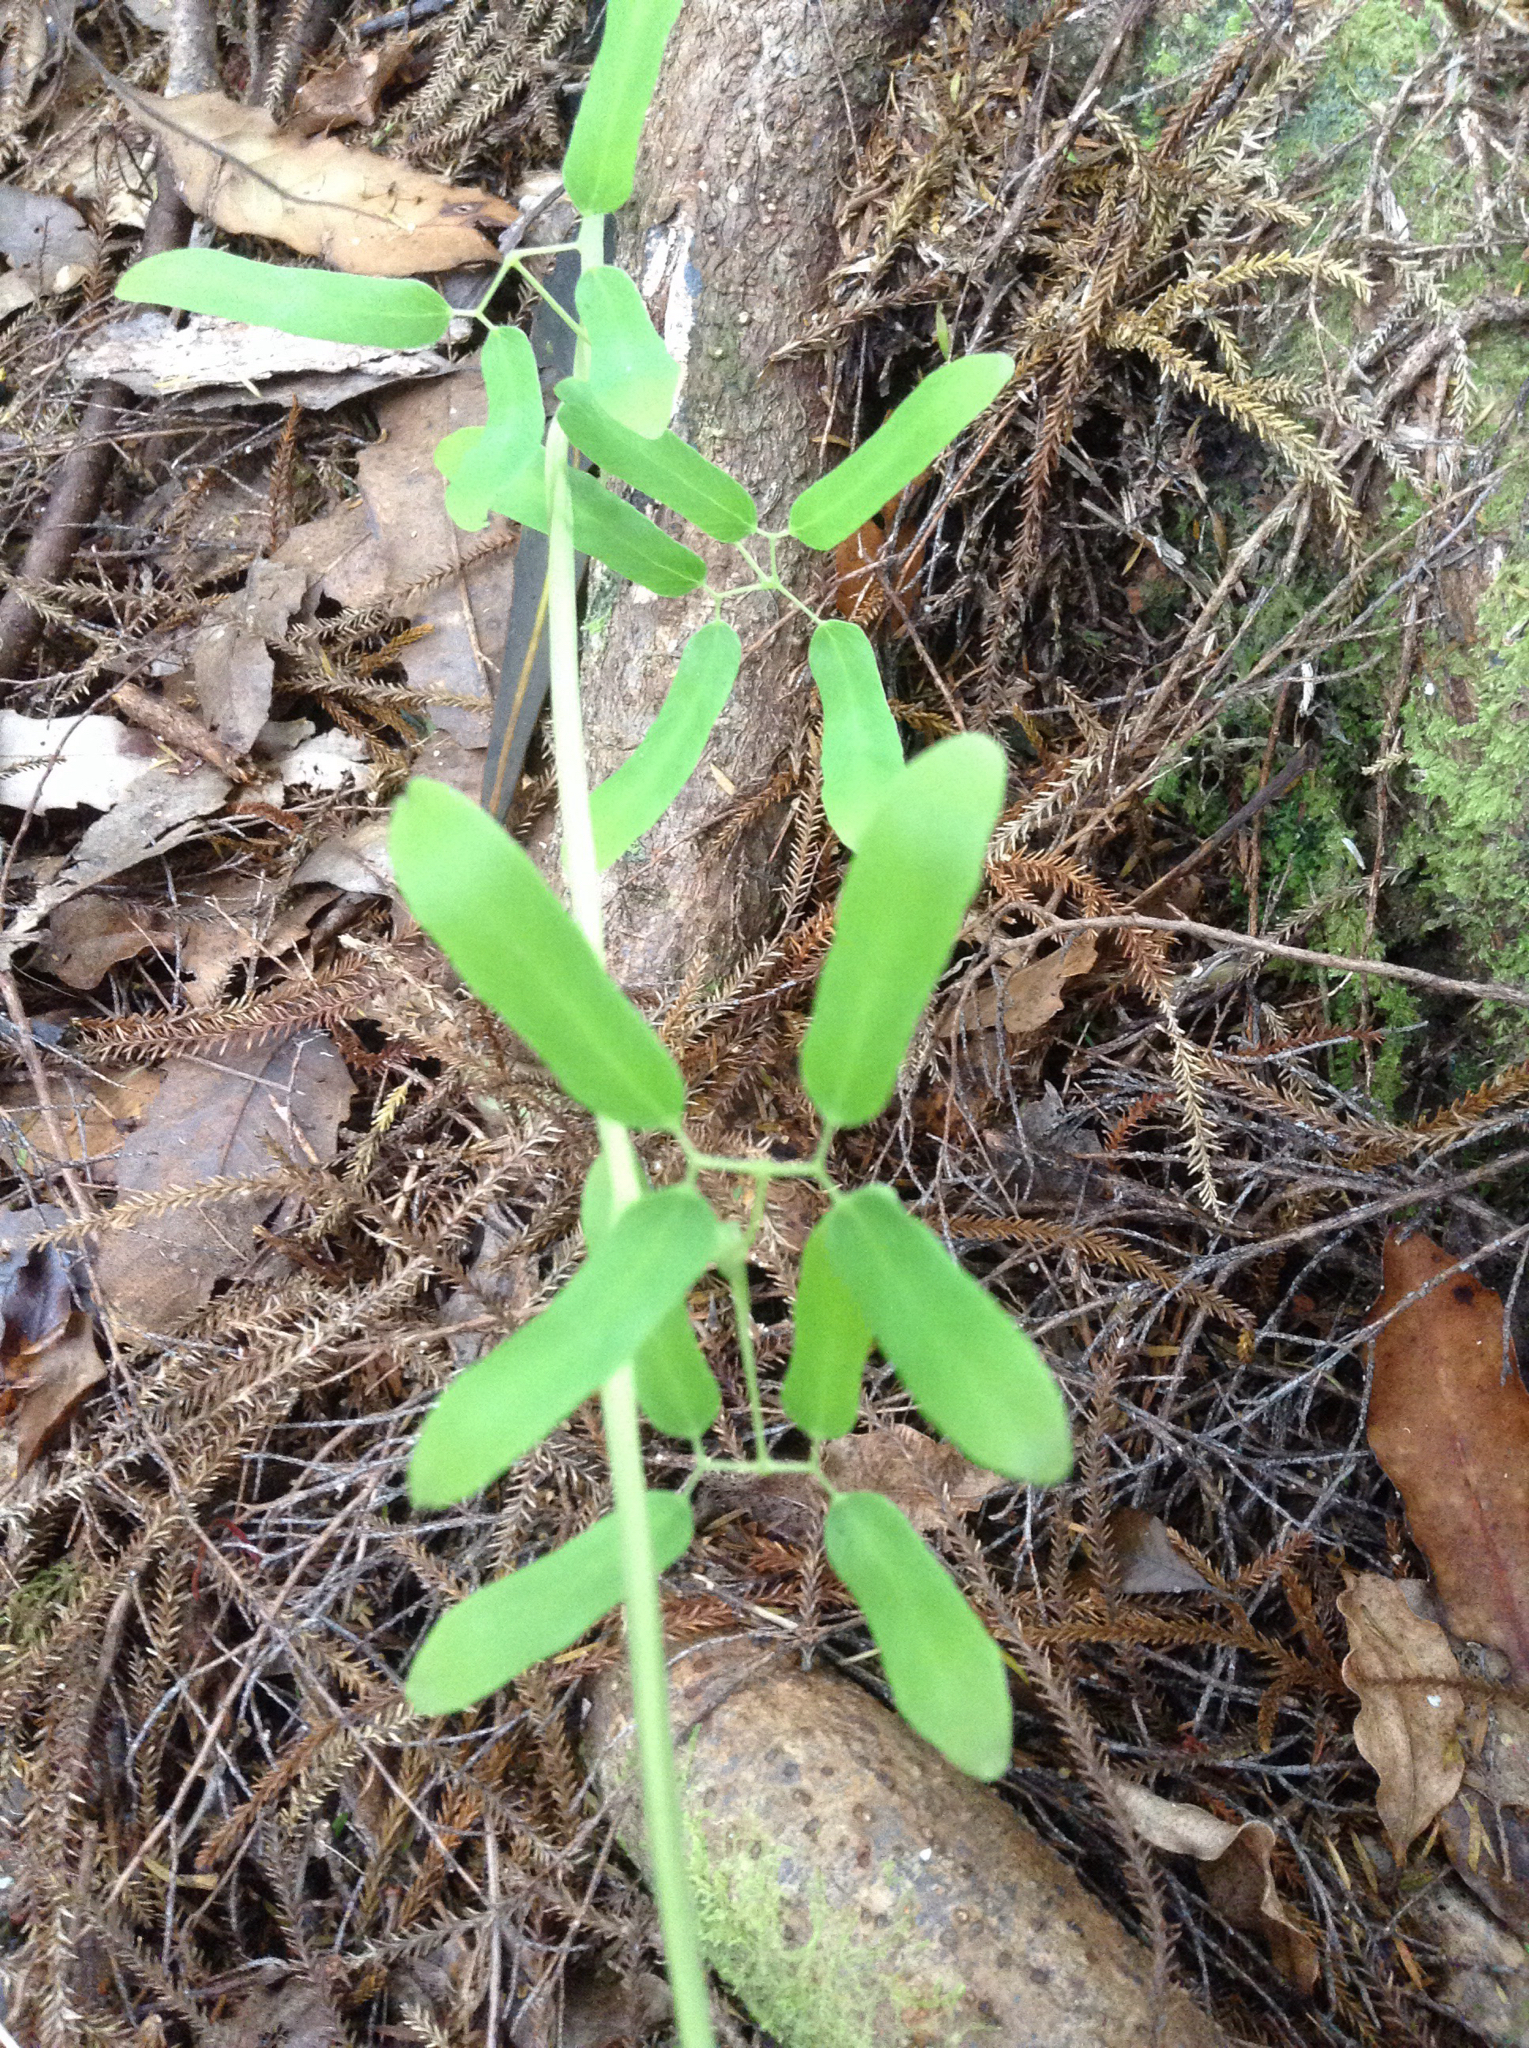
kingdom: Plantae
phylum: Tracheophyta
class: Polypodiopsida
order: Schizaeales
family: Lygodiaceae
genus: Lygodium
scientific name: Lygodium articulatum
